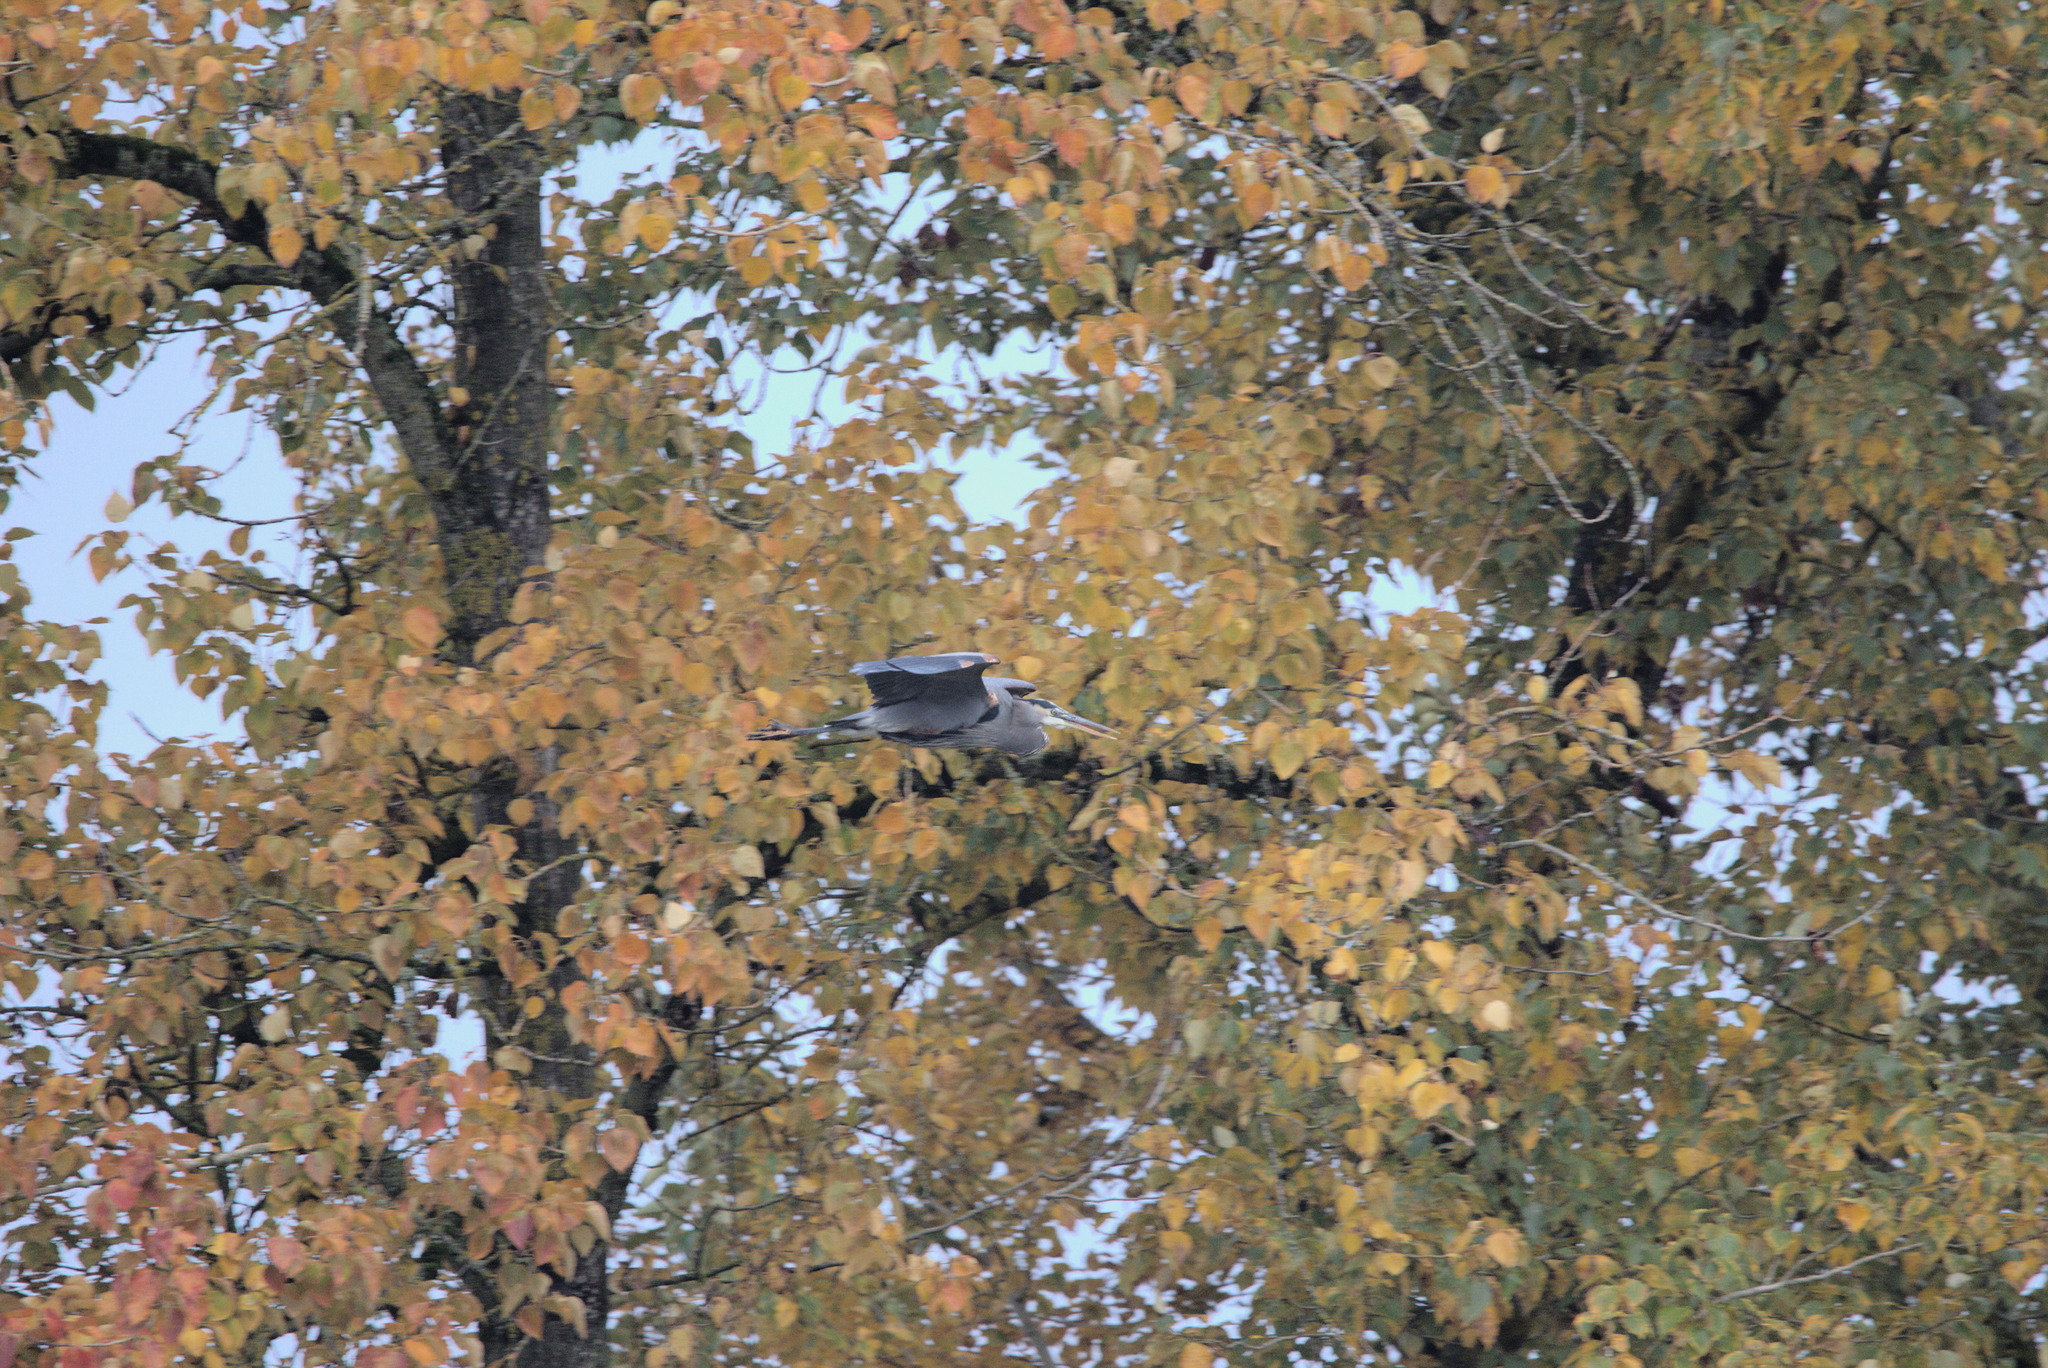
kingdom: Animalia
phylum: Chordata
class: Aves
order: Pelecaniformes
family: Ardeidae
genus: Ardea
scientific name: Ardea herodias
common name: Great blue heron
